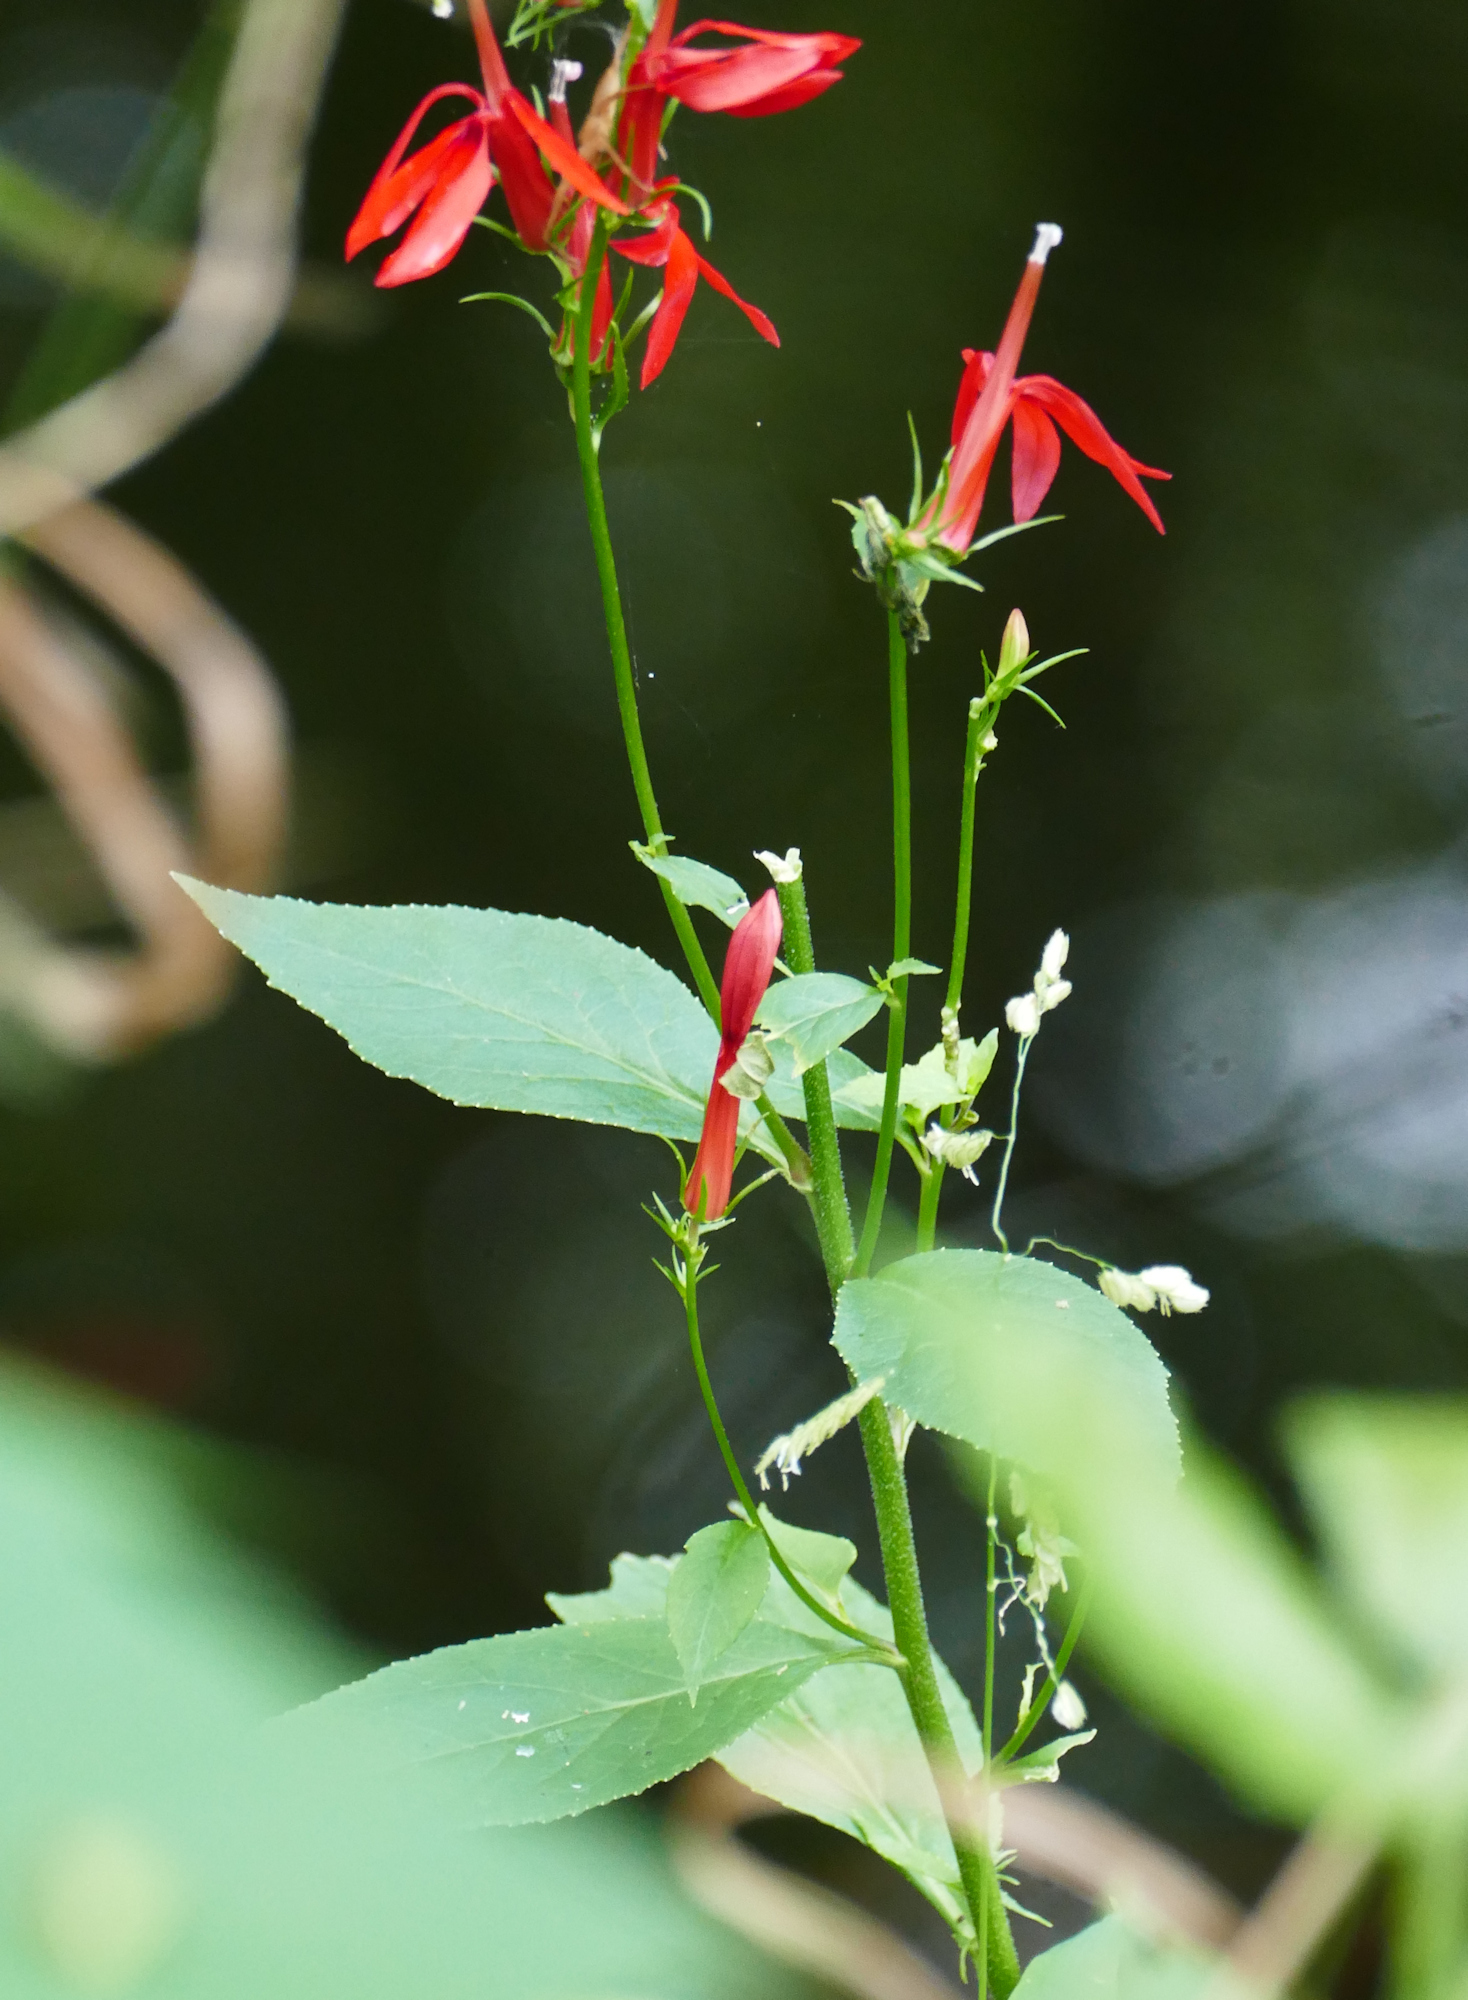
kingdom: Plantae
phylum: Tracheophyta
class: Magnoliopsida
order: Asterales
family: Campanulaceae
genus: Lobelia
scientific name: Lobelia cardinalis
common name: Cardinal flower
